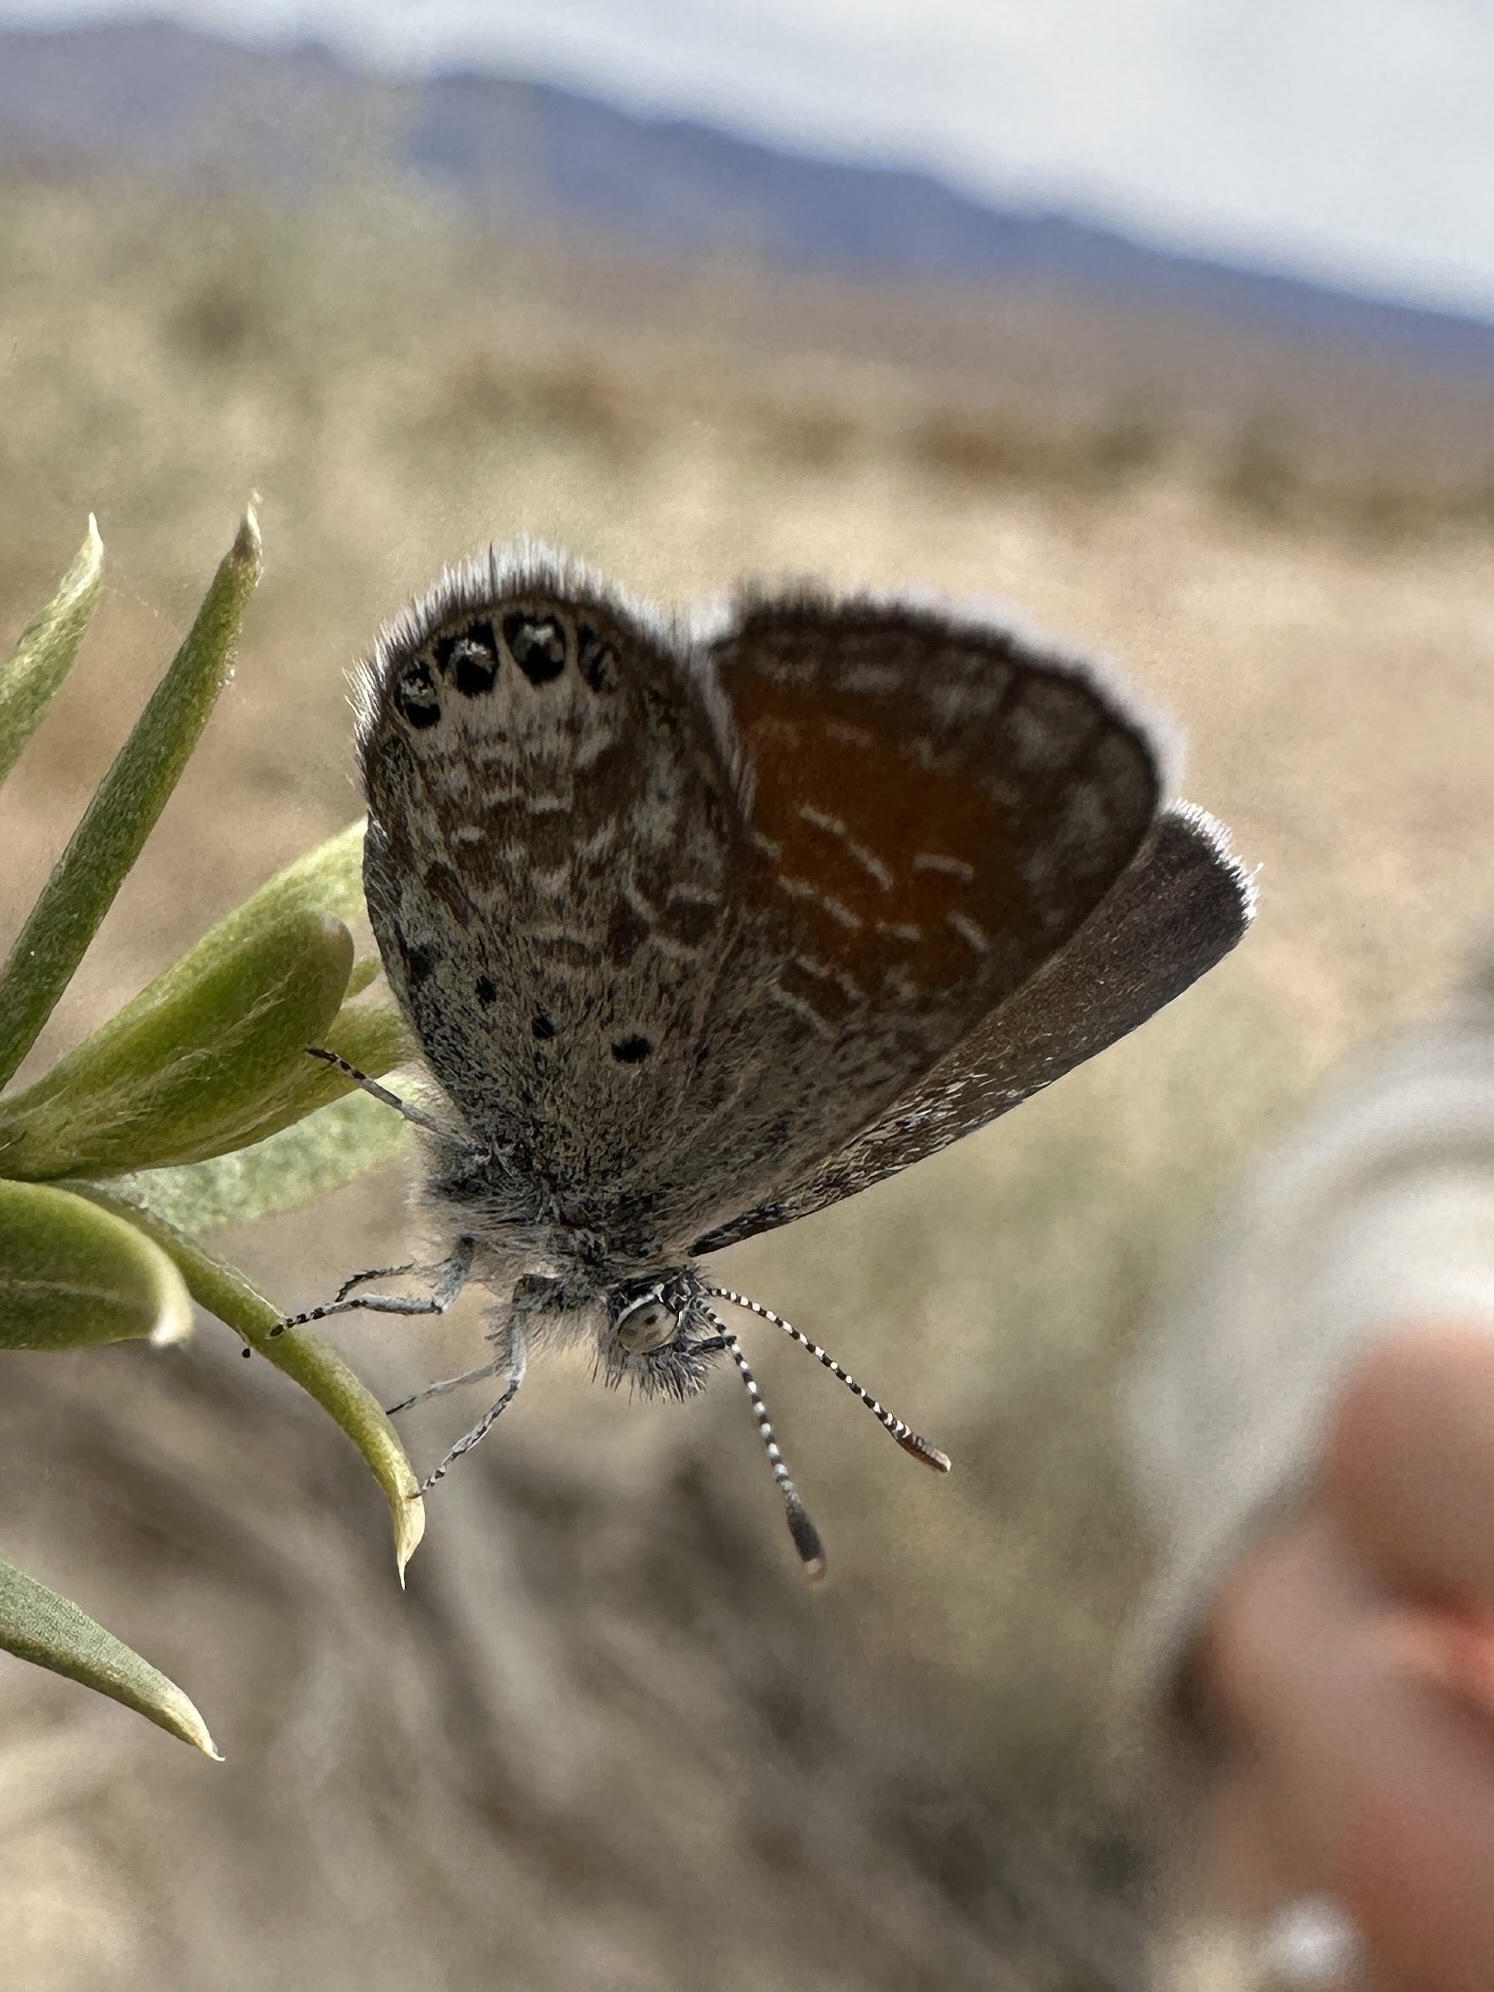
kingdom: Animalia
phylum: Arthropoda
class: Insecta
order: Lepidoptera
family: Lycaenidae
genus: Brephidium
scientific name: Brephidium exilis
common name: Pygmy blue
